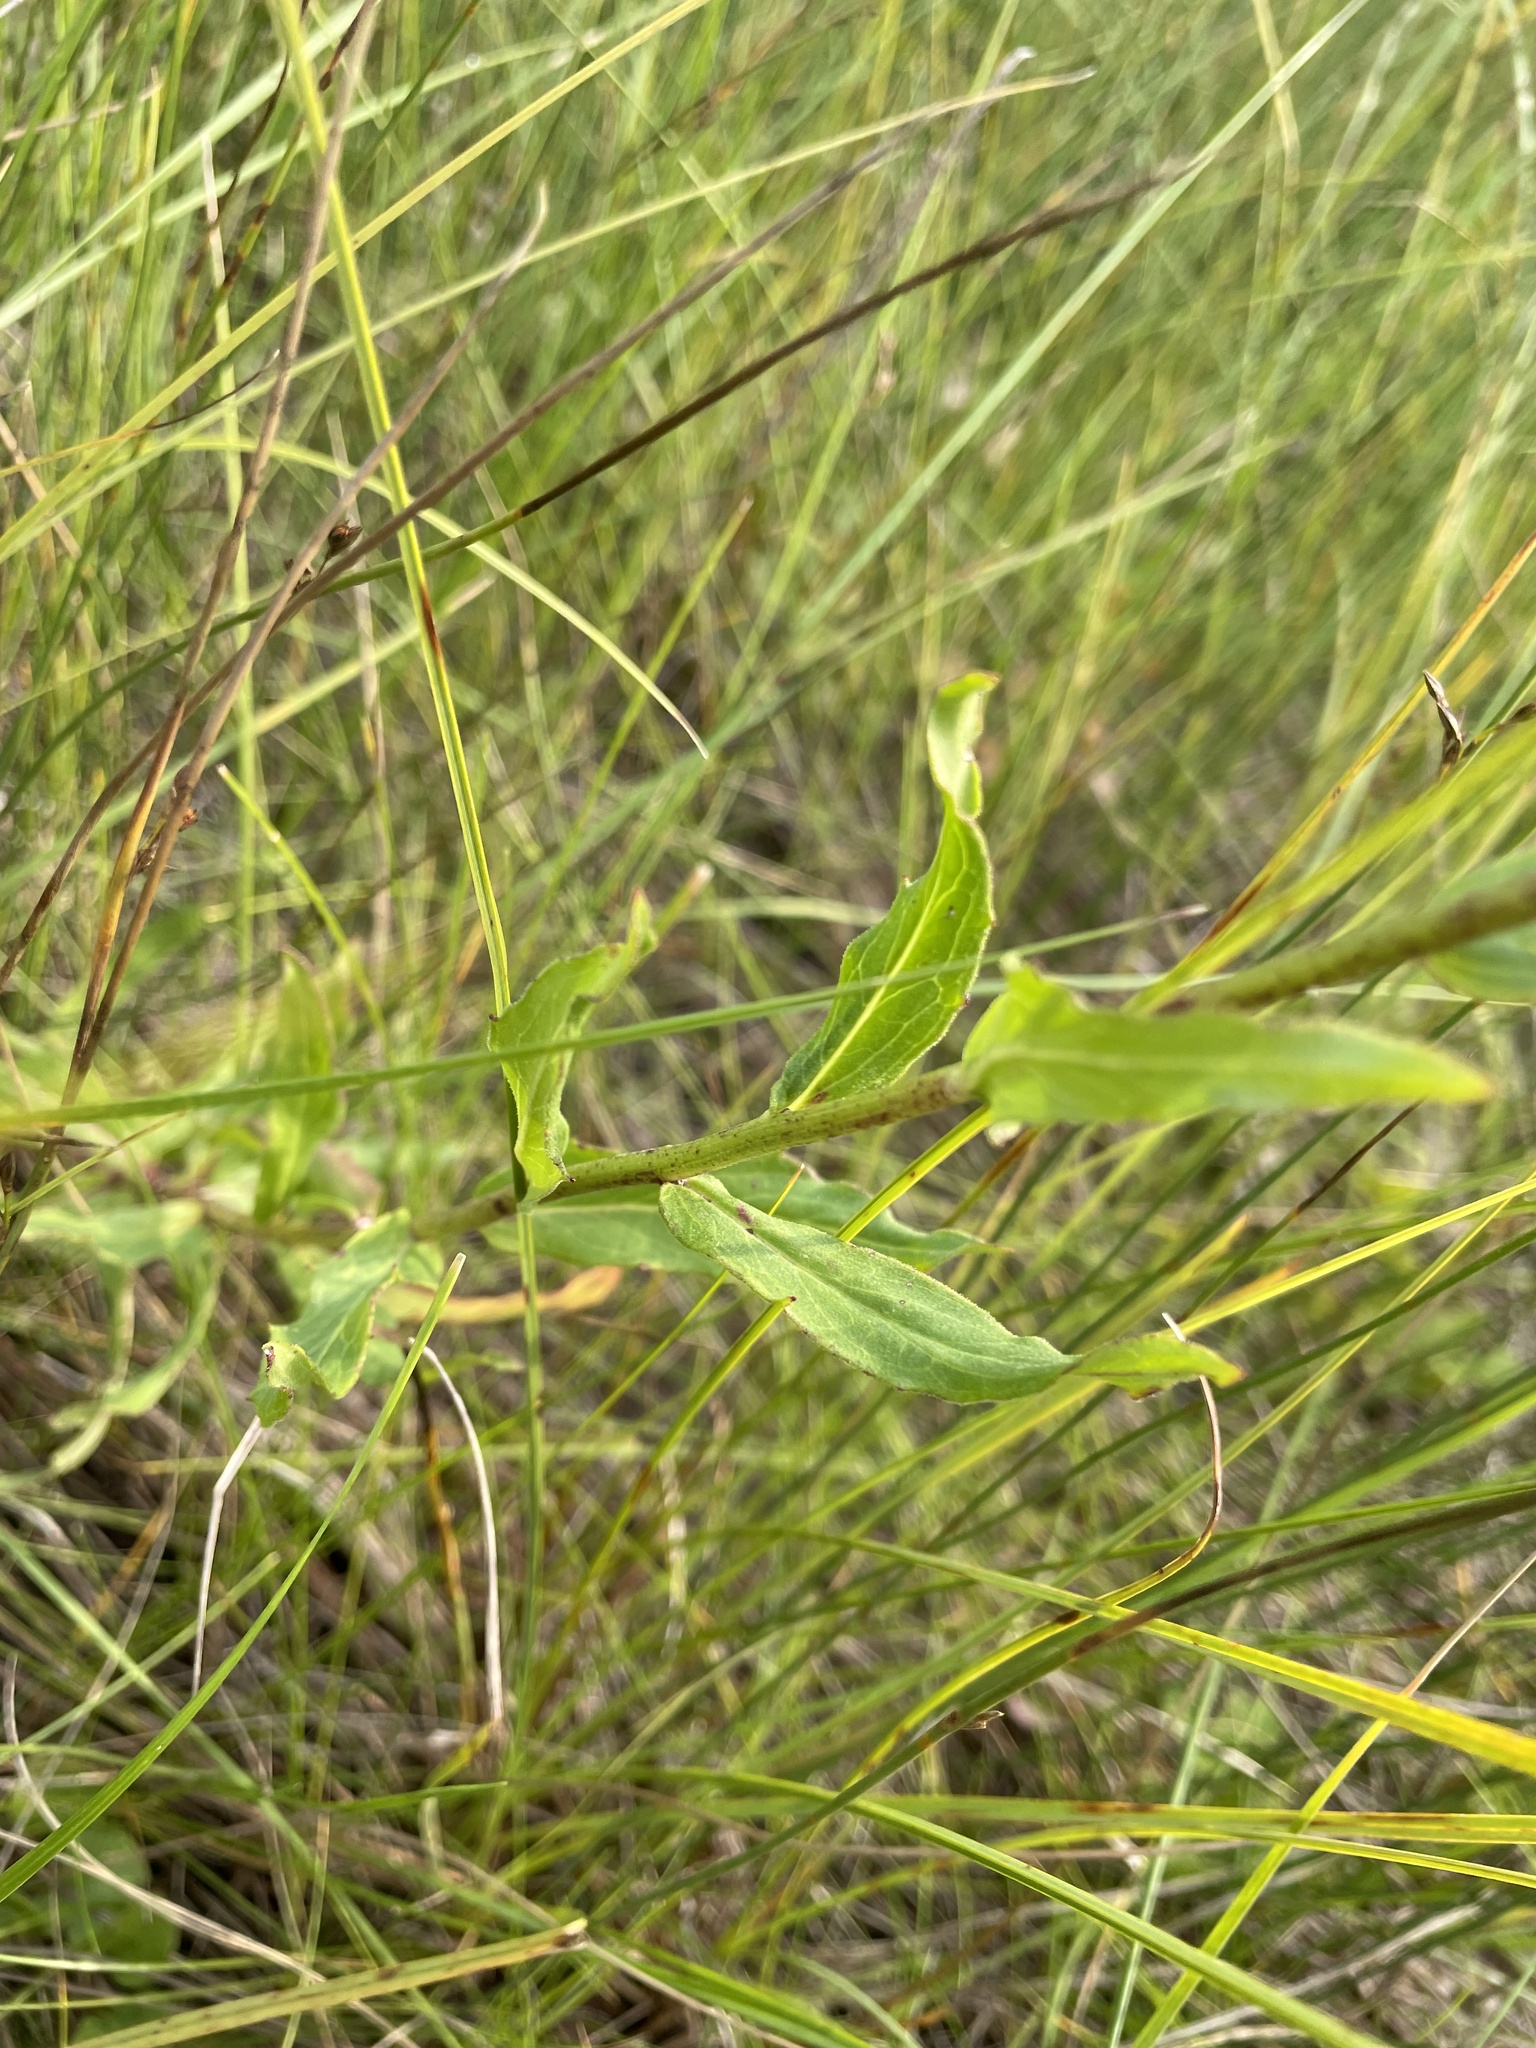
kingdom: Plantae
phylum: Tracheophyta
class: Magnoliopsida
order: Asterales
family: Asteraceae
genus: Hieracium
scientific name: Hieracium umbellatum
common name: Northern hawkweed
